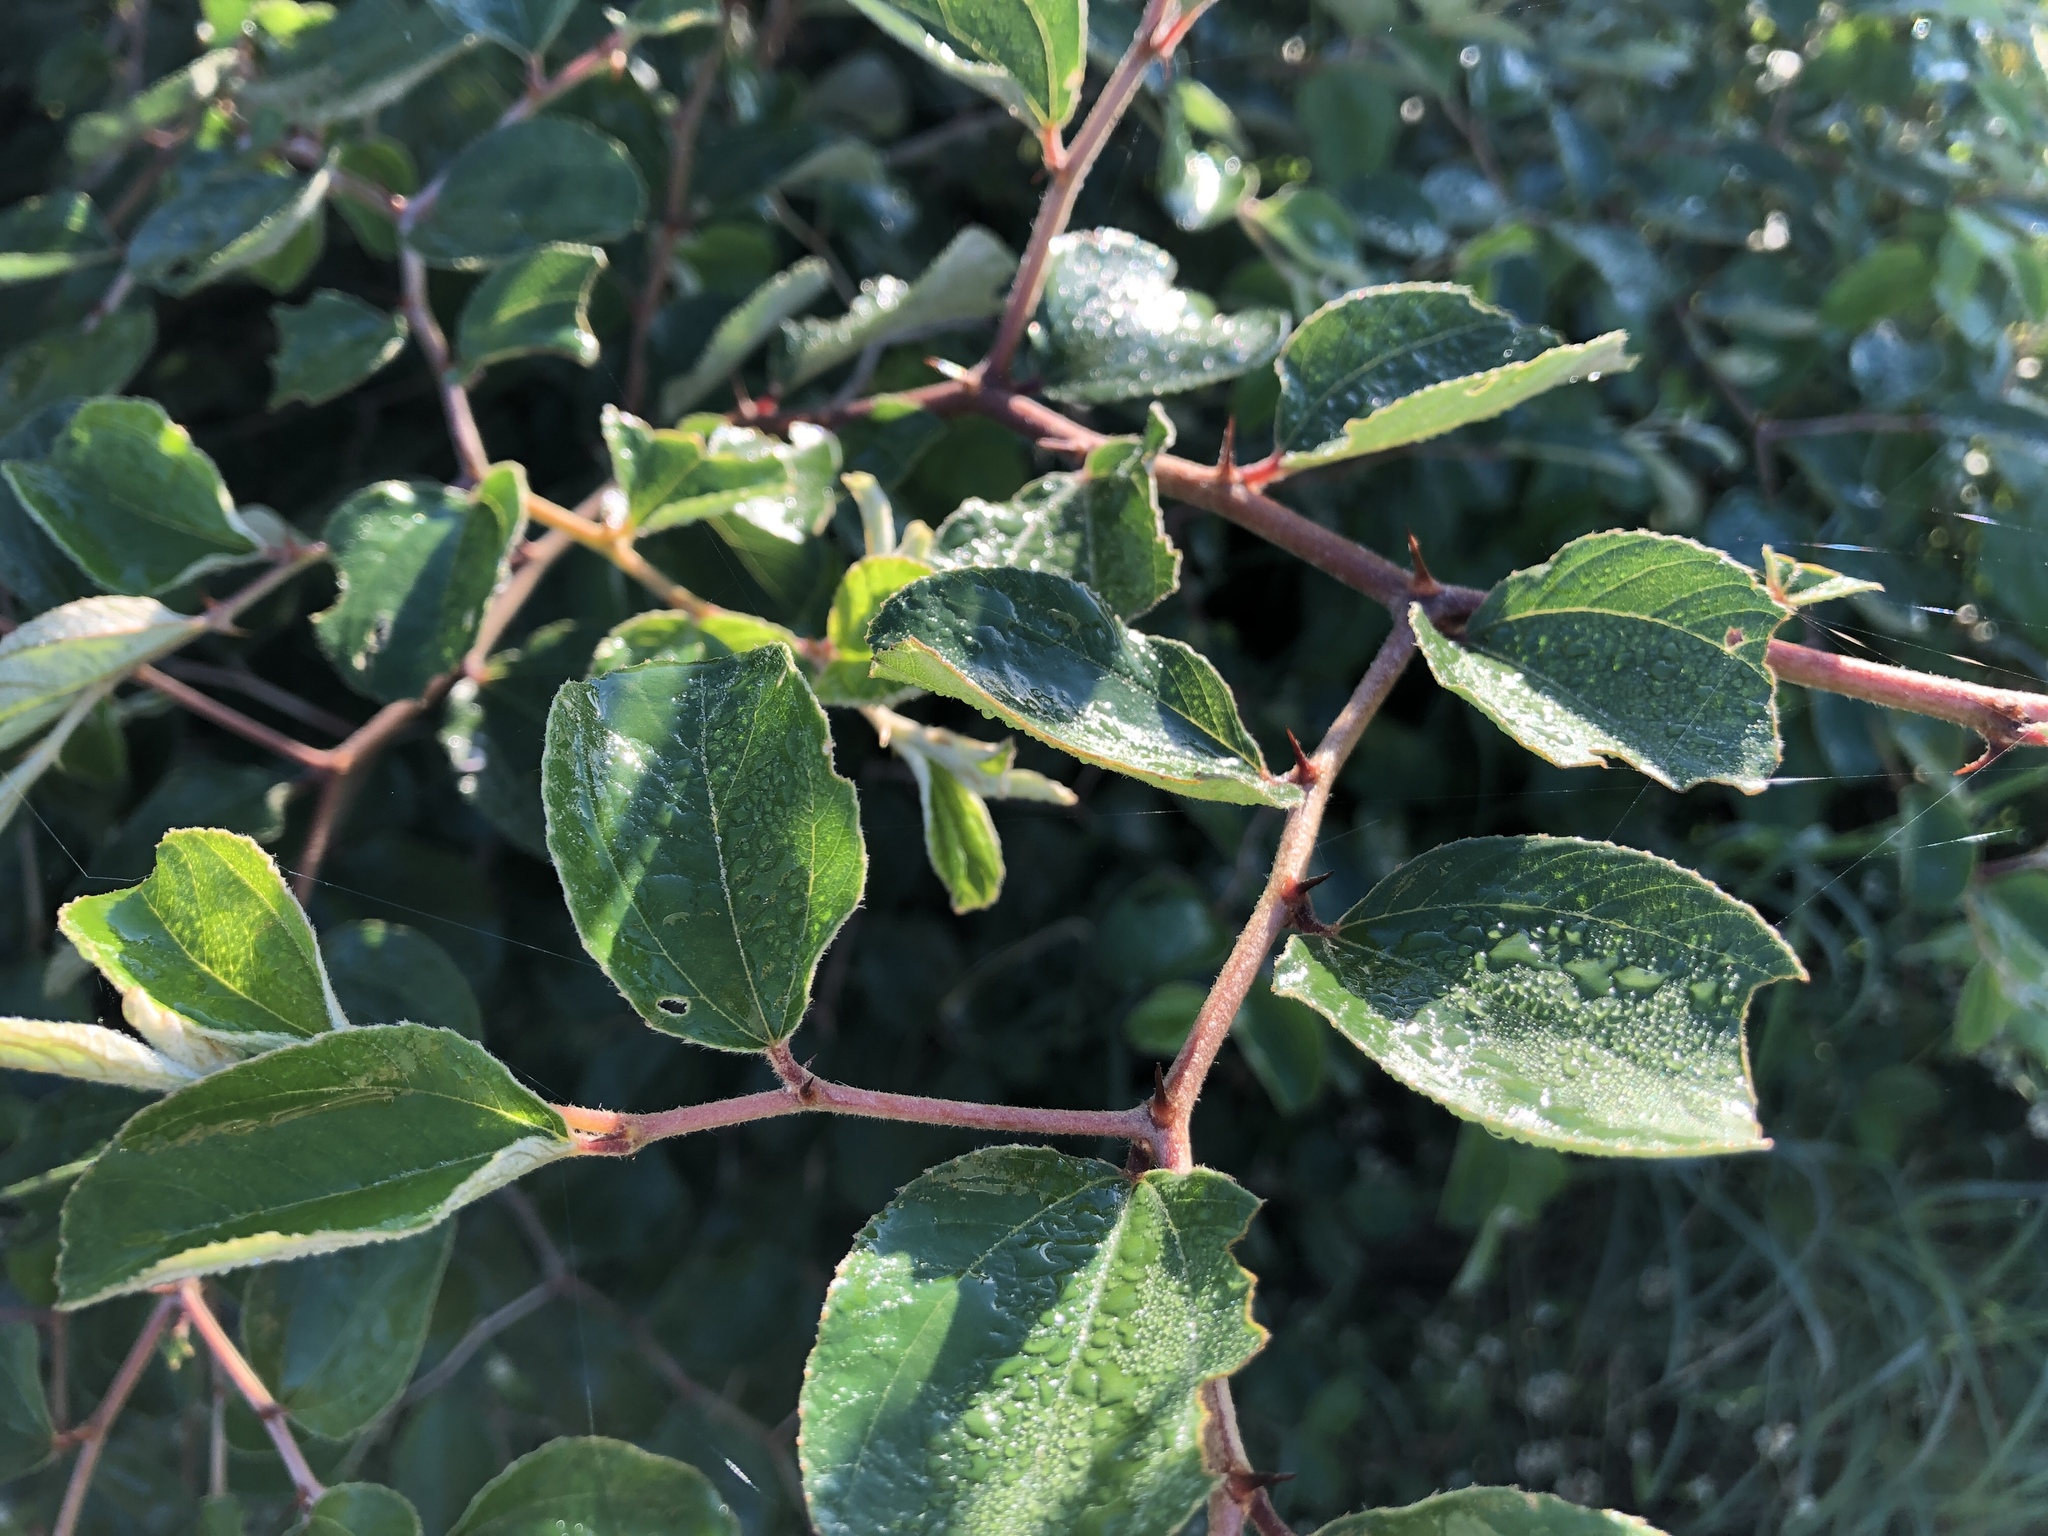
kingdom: Plantae
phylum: Tracheophyta
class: Magnoliopsida
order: Rosales
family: Rhamnaceae
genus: Ziziphus
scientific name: Ziziphus mauritiana
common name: Indian jujube
